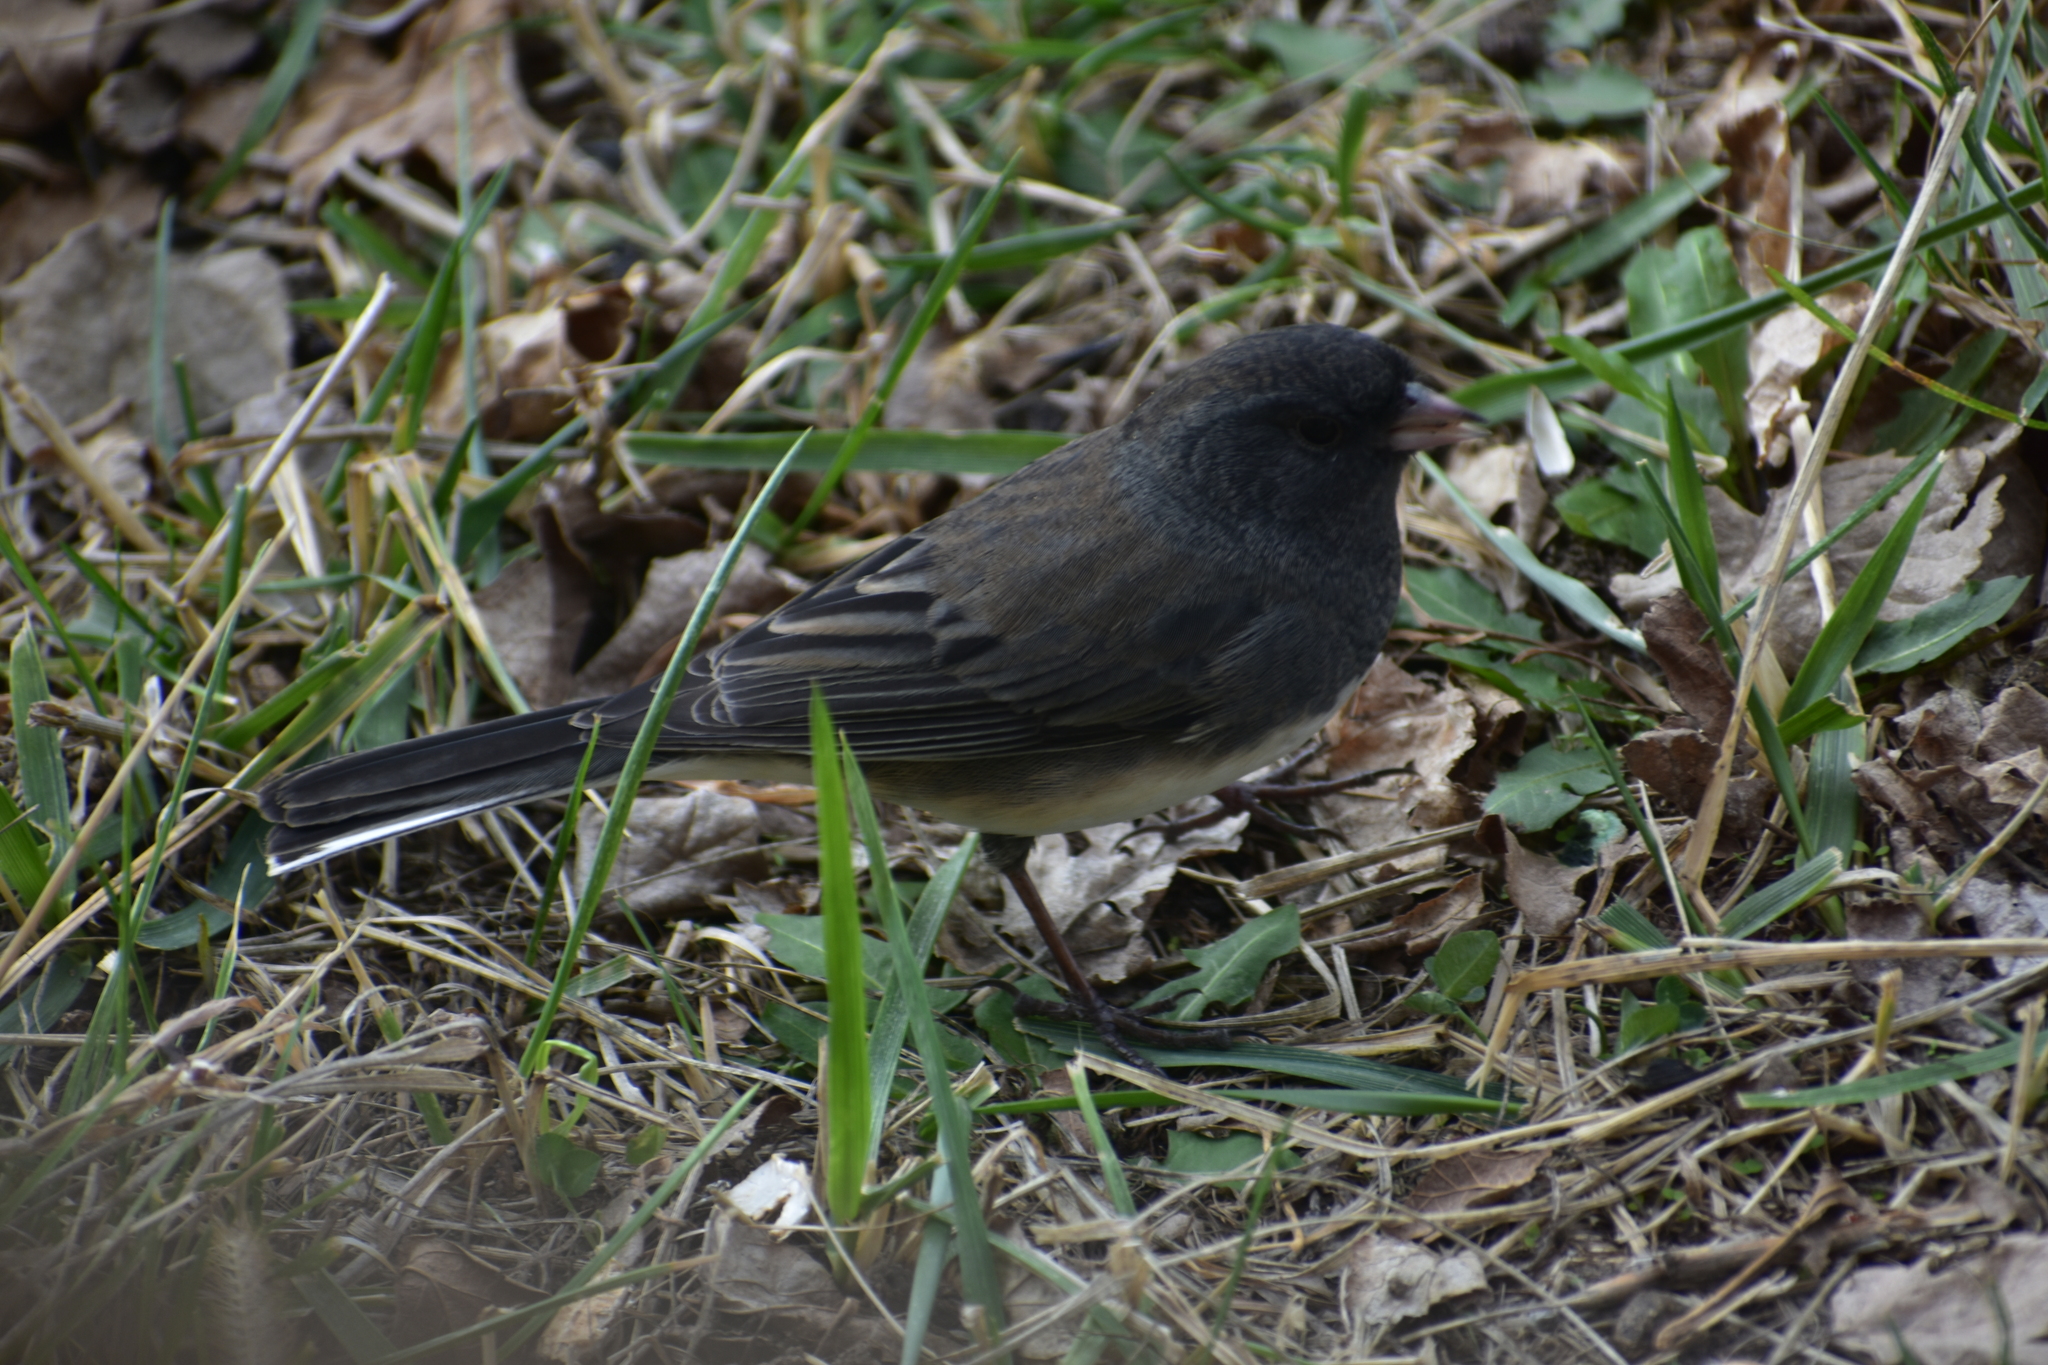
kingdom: Animalia
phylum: Chordata
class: Aves
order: Passeriformes
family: Passerellidae
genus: Junco
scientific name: Junco hyemalis
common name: Dark-eyed junco
